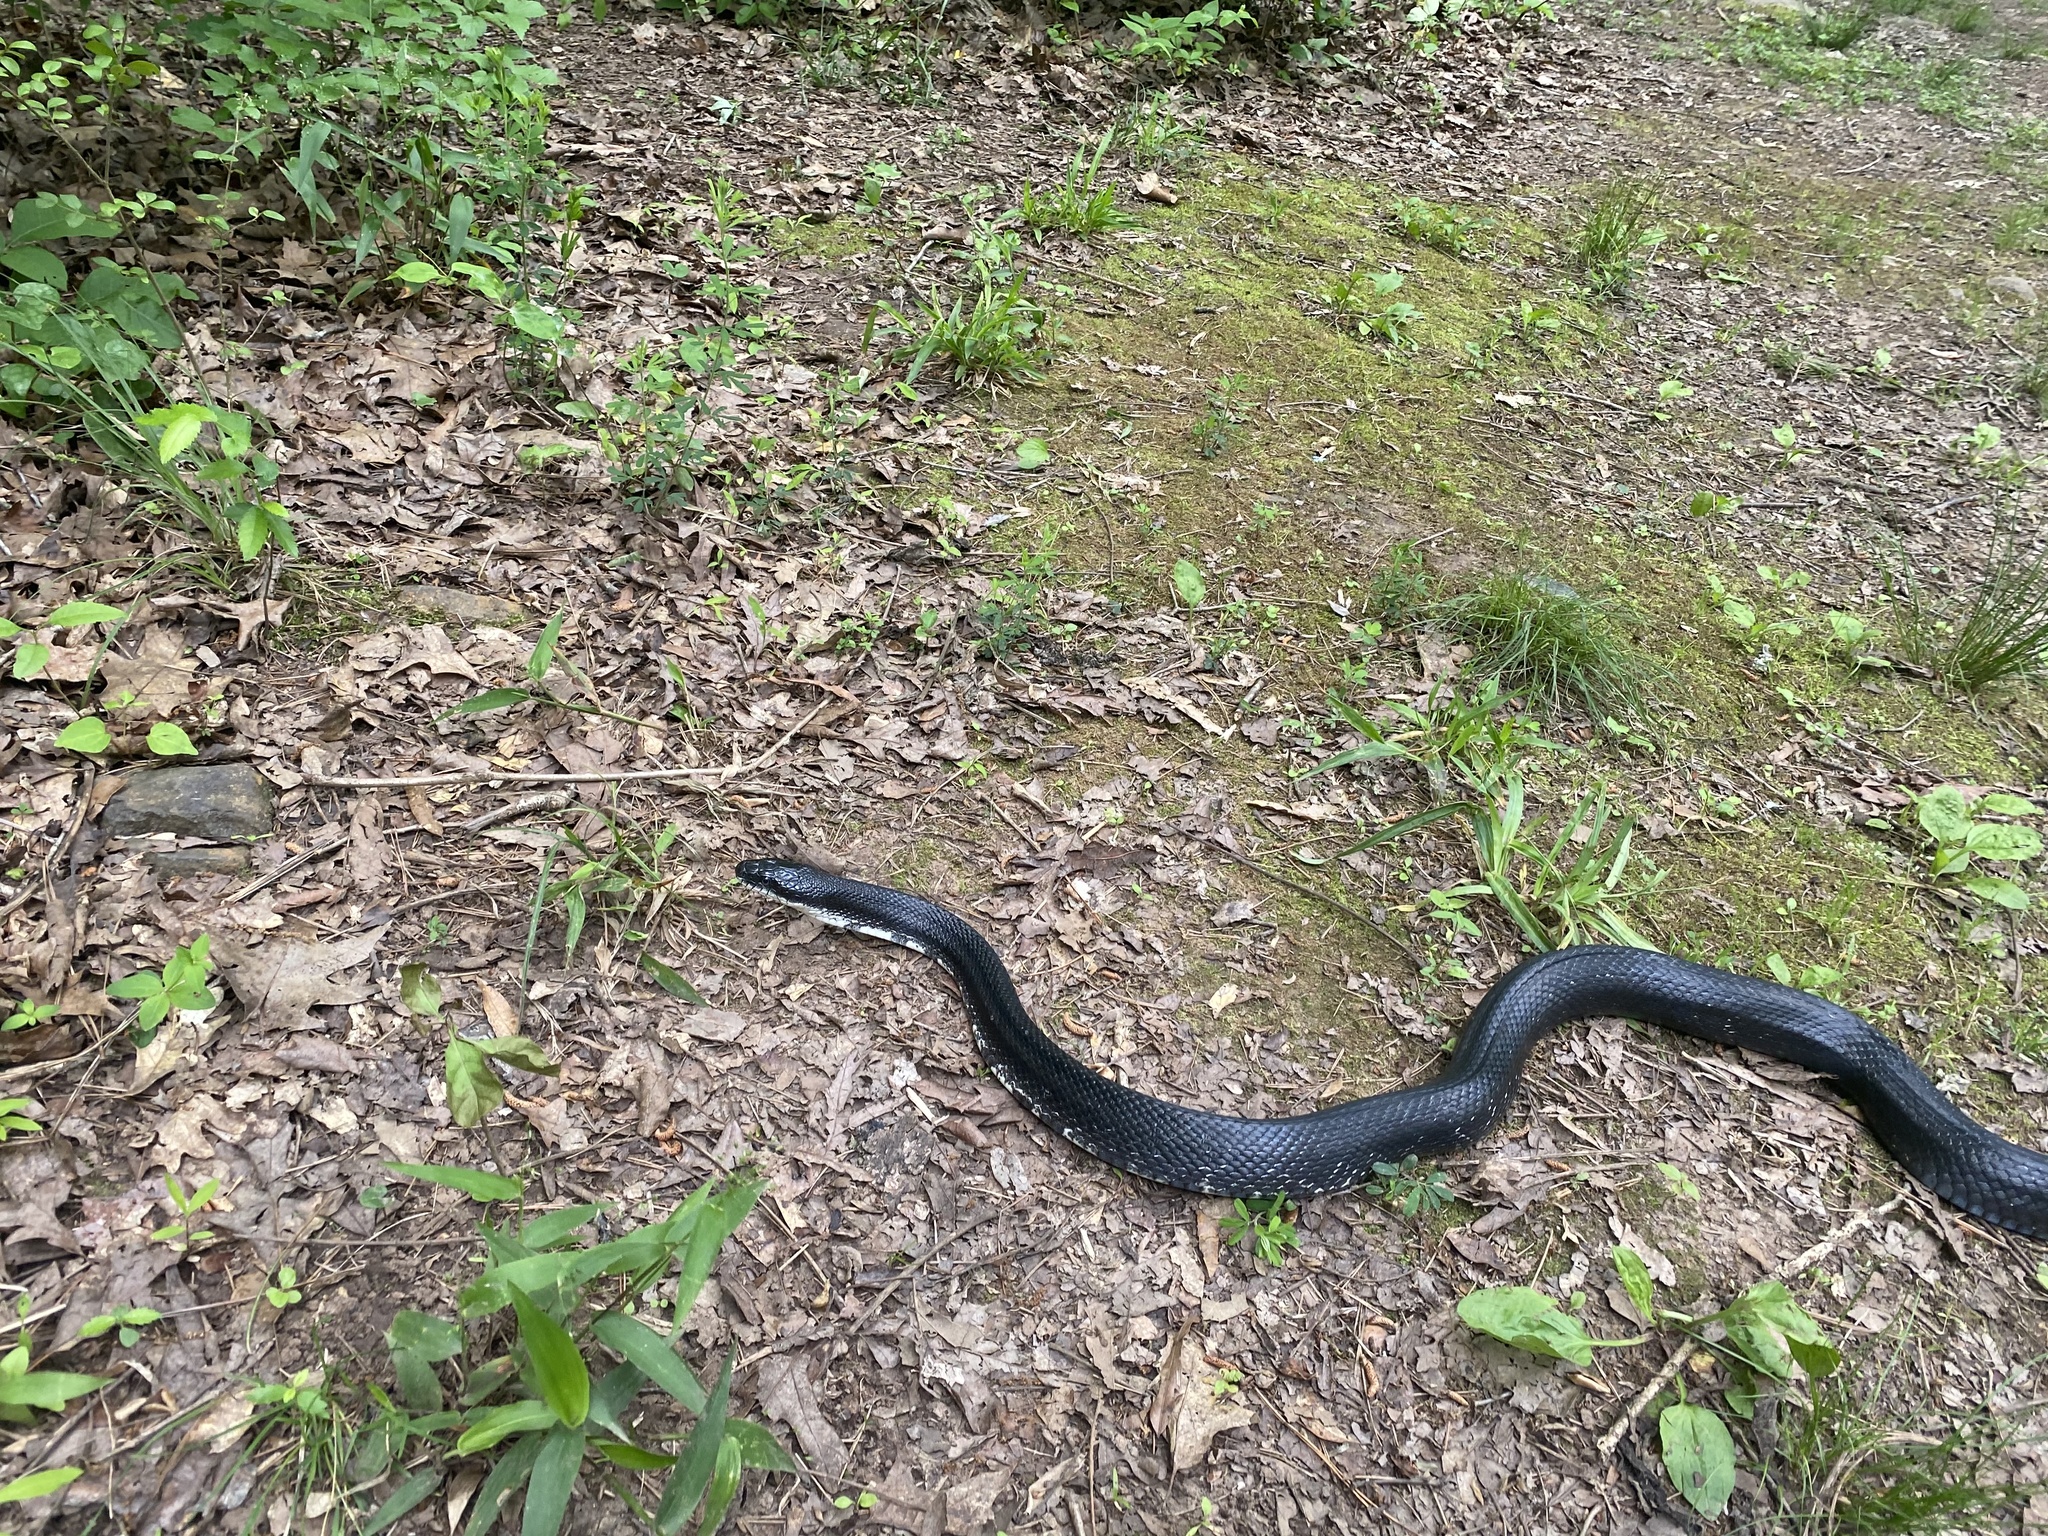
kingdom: Animalia
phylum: Chordata
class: Squamata
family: Colubridae
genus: Pantherophis
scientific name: Pantherophis alleghaniensis
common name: Eastern rat snake
